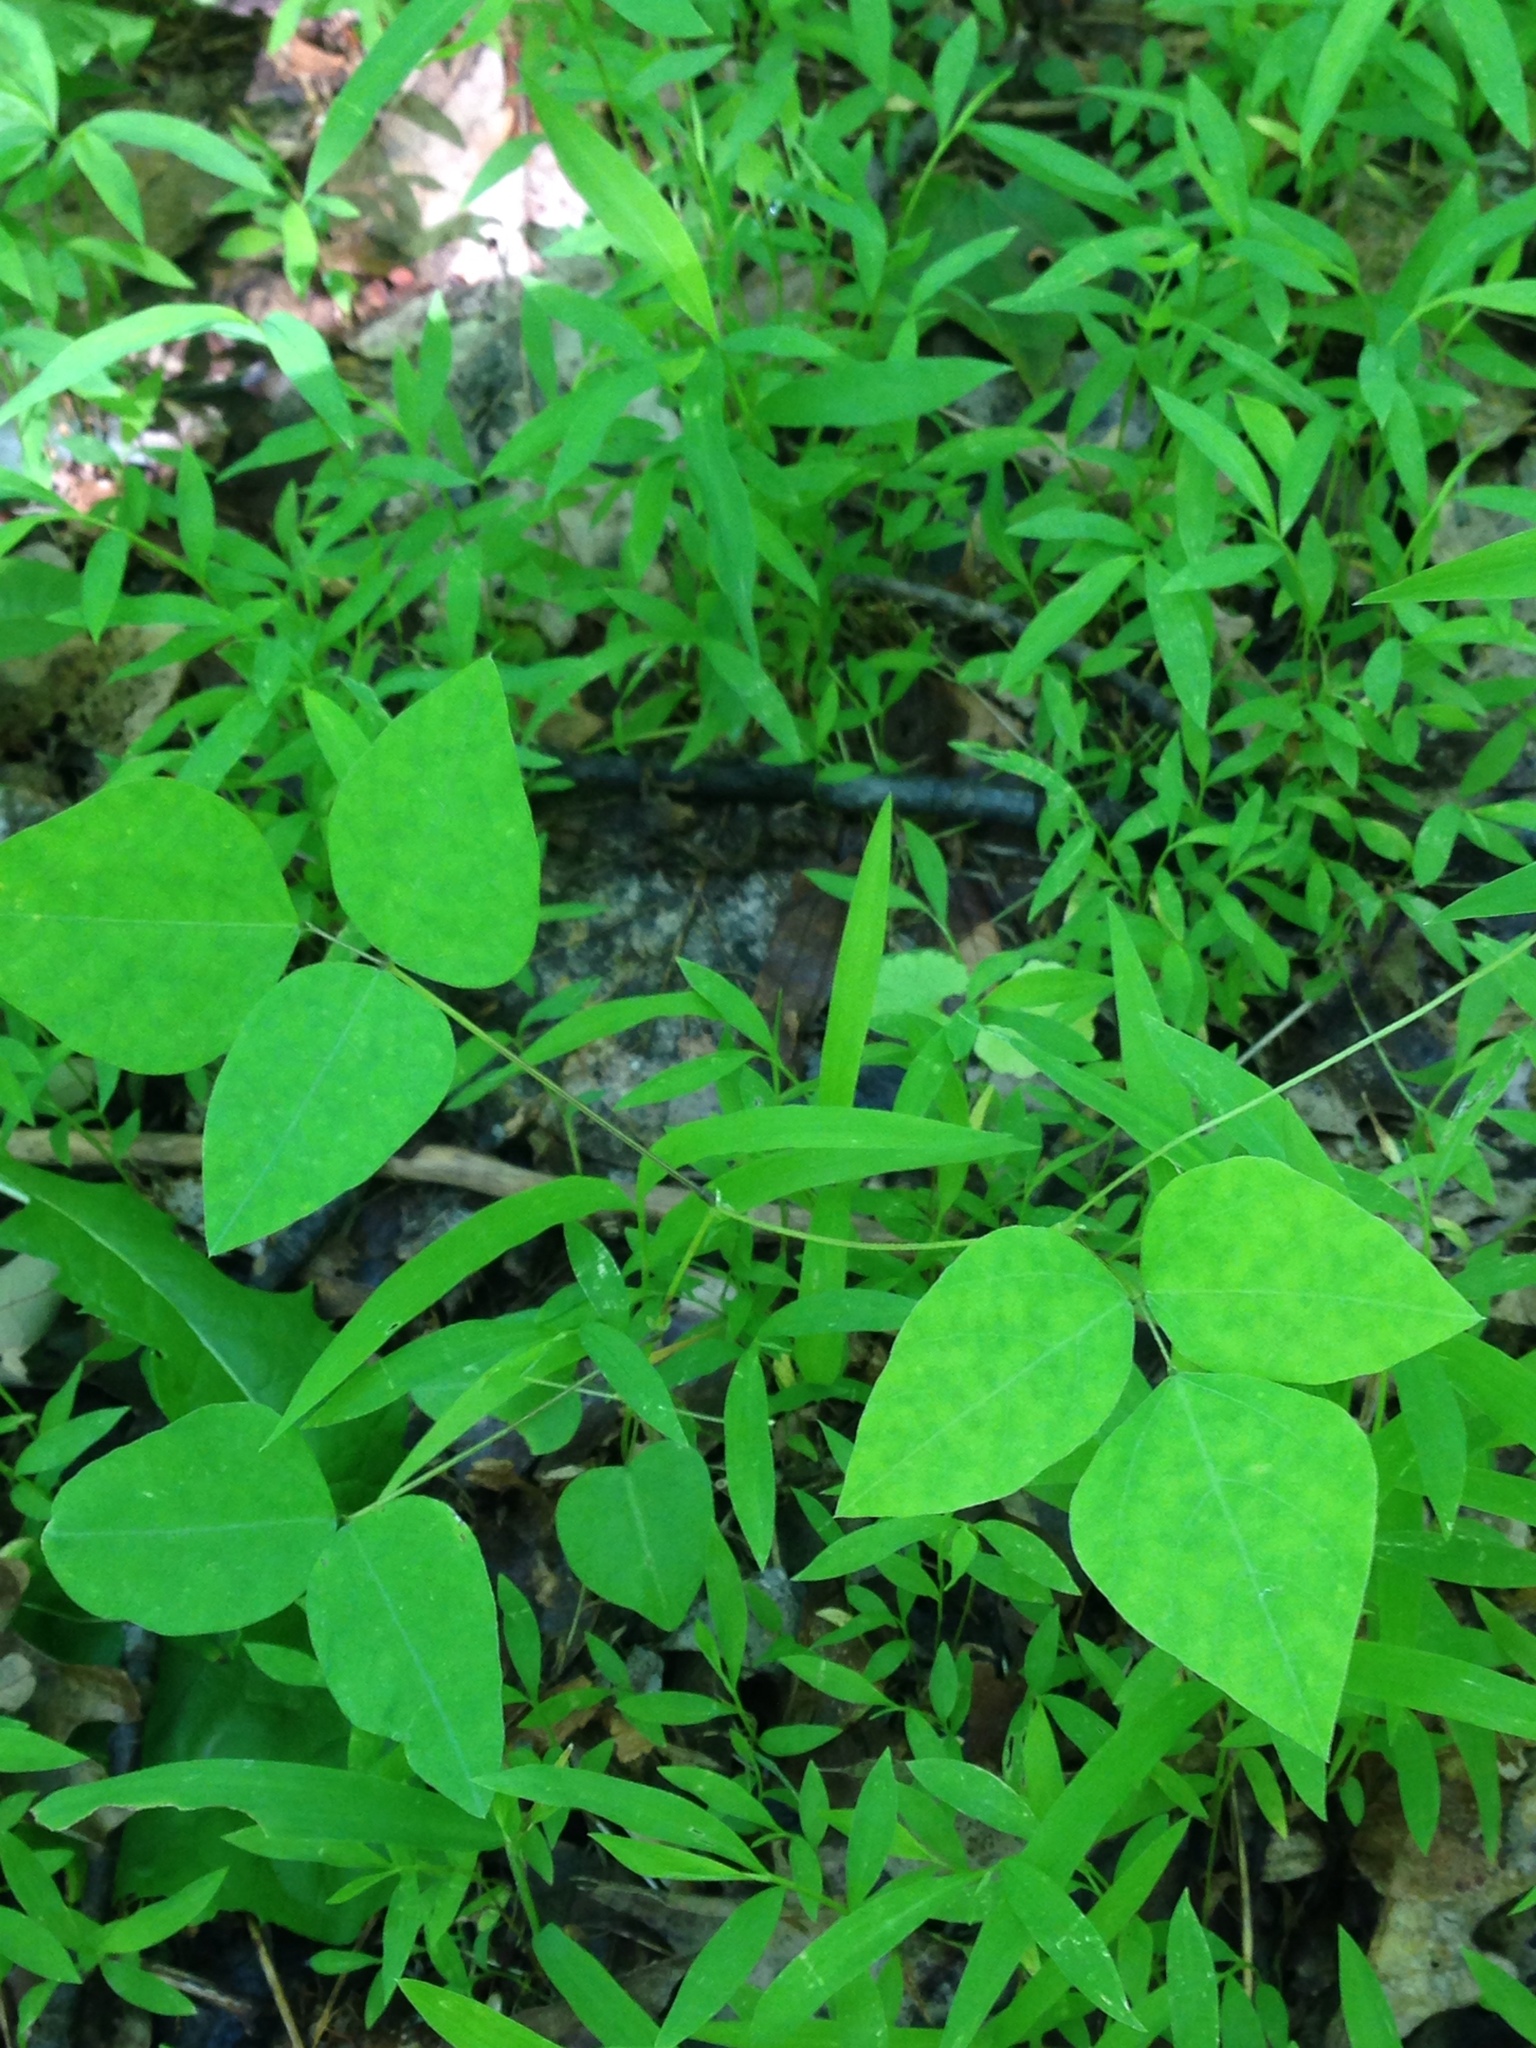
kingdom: Plantae
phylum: Tracheophyta
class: Magnoliopsida
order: Fabales
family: Fabaceae
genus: Amphicarpaea
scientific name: Amphicarpaea bracteata
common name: American hog peanut
